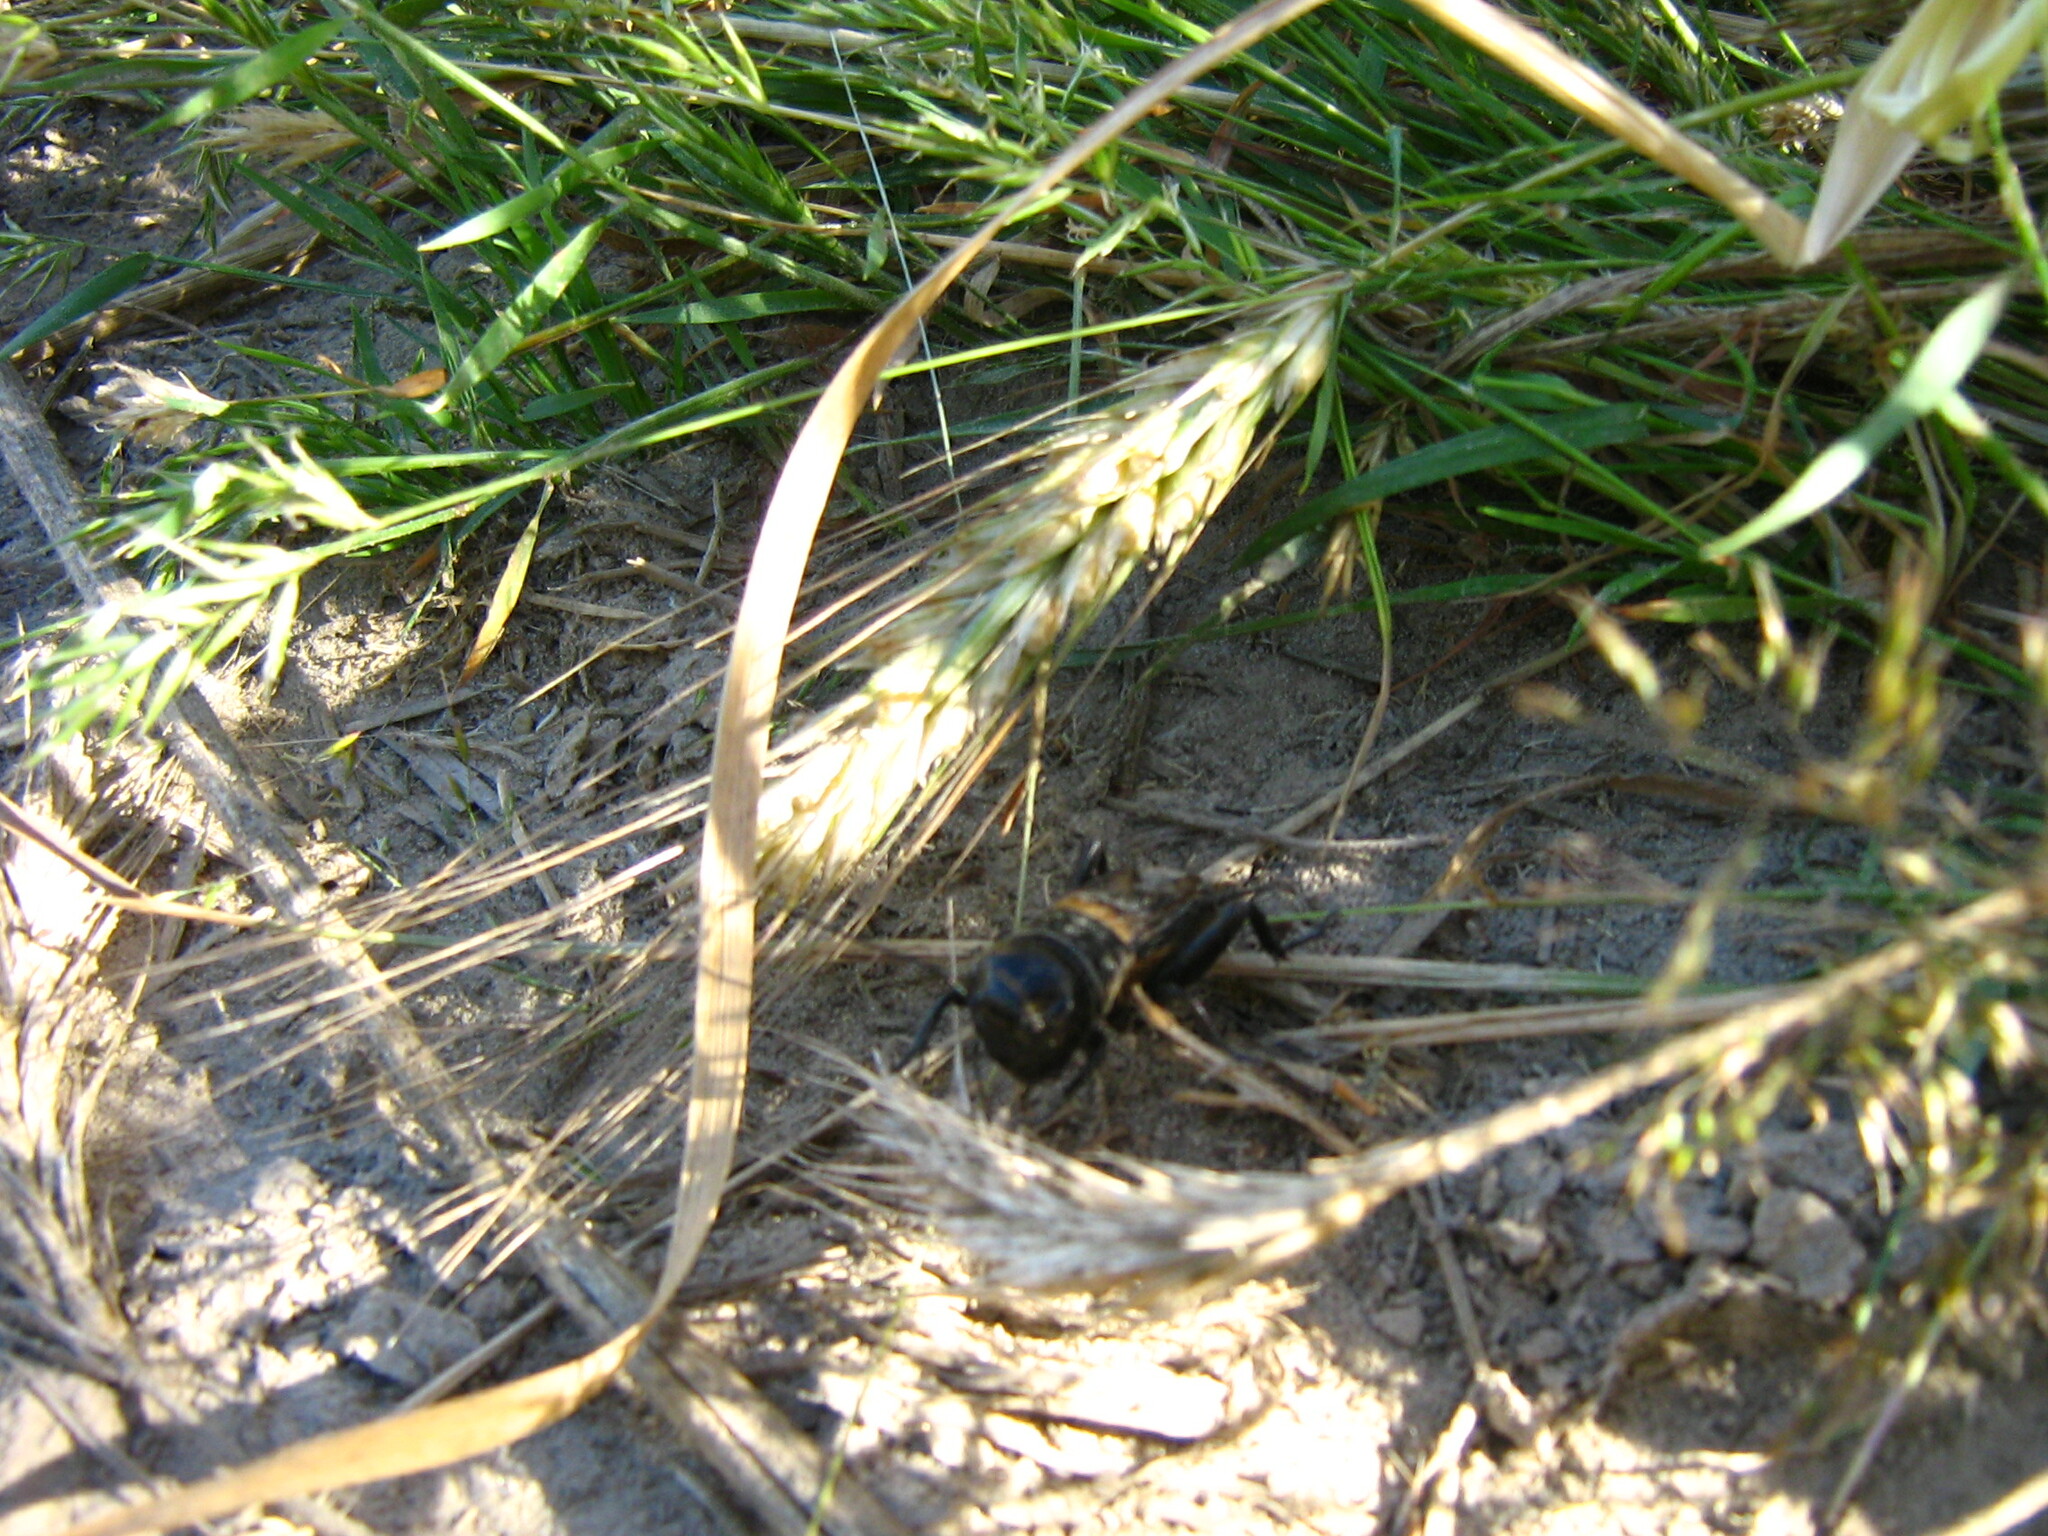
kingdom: Animalia
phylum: Arthropoda
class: Insecta
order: Orthoptera
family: Gryllidae
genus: Gryllus
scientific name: Gryllus campestris
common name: Field cricket
